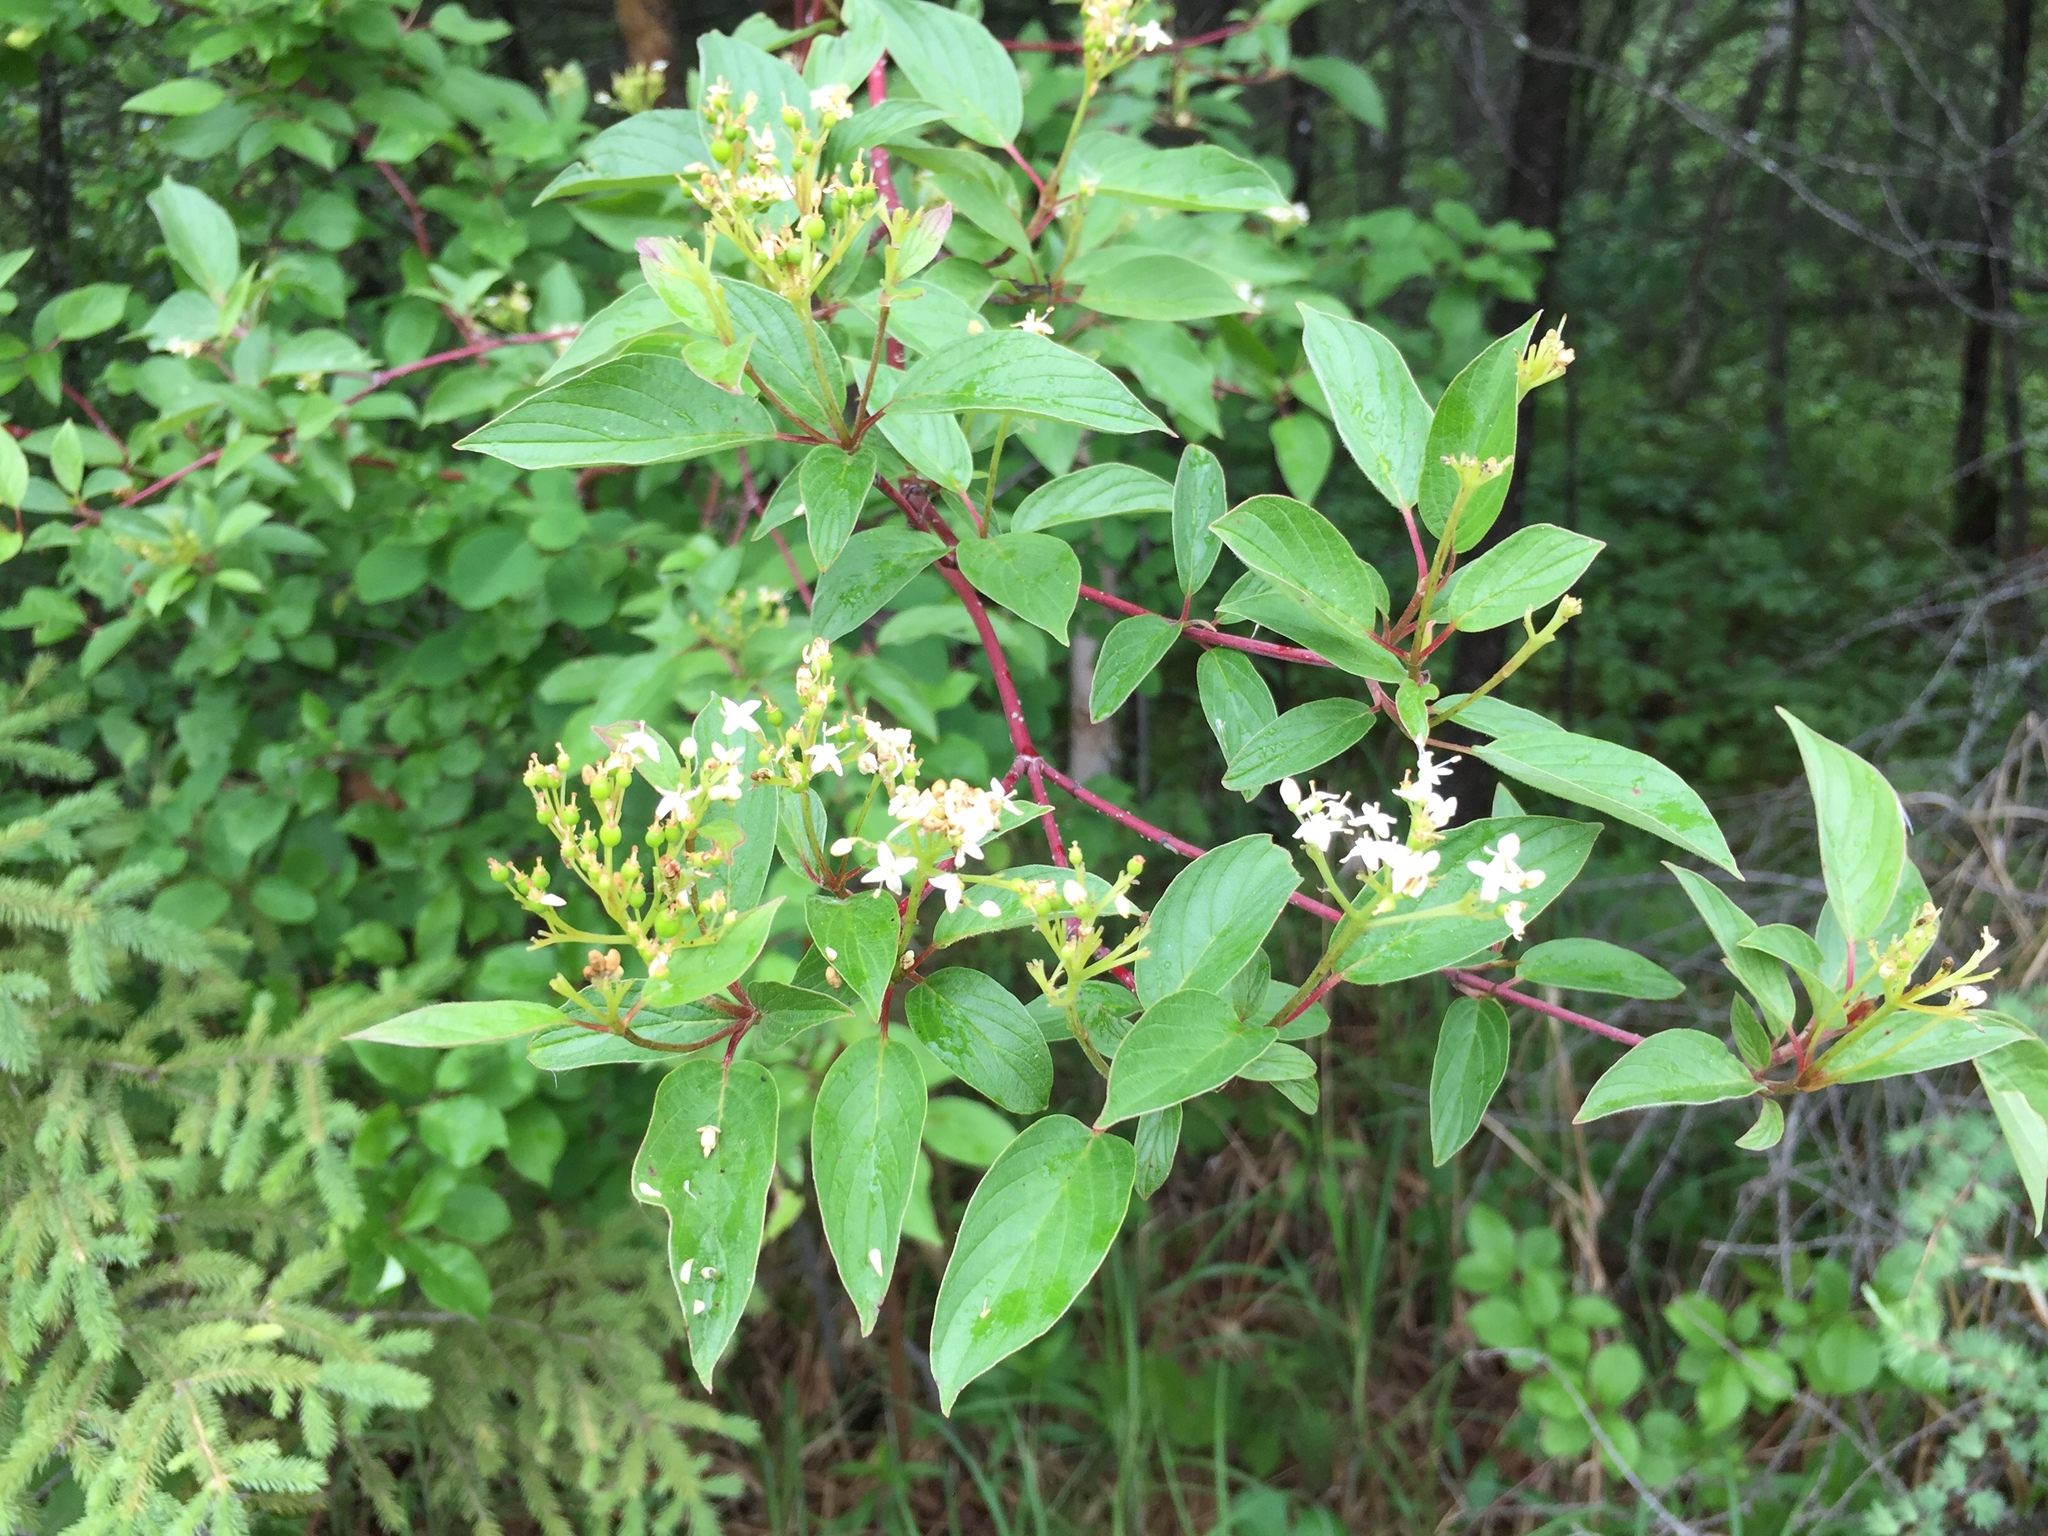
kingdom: Plantae
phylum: Tracheophyta
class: Magnoliopsida
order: Cornales
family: Cornaceae
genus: Cornus
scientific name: Cornus sericea
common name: Red-osier dogwood
